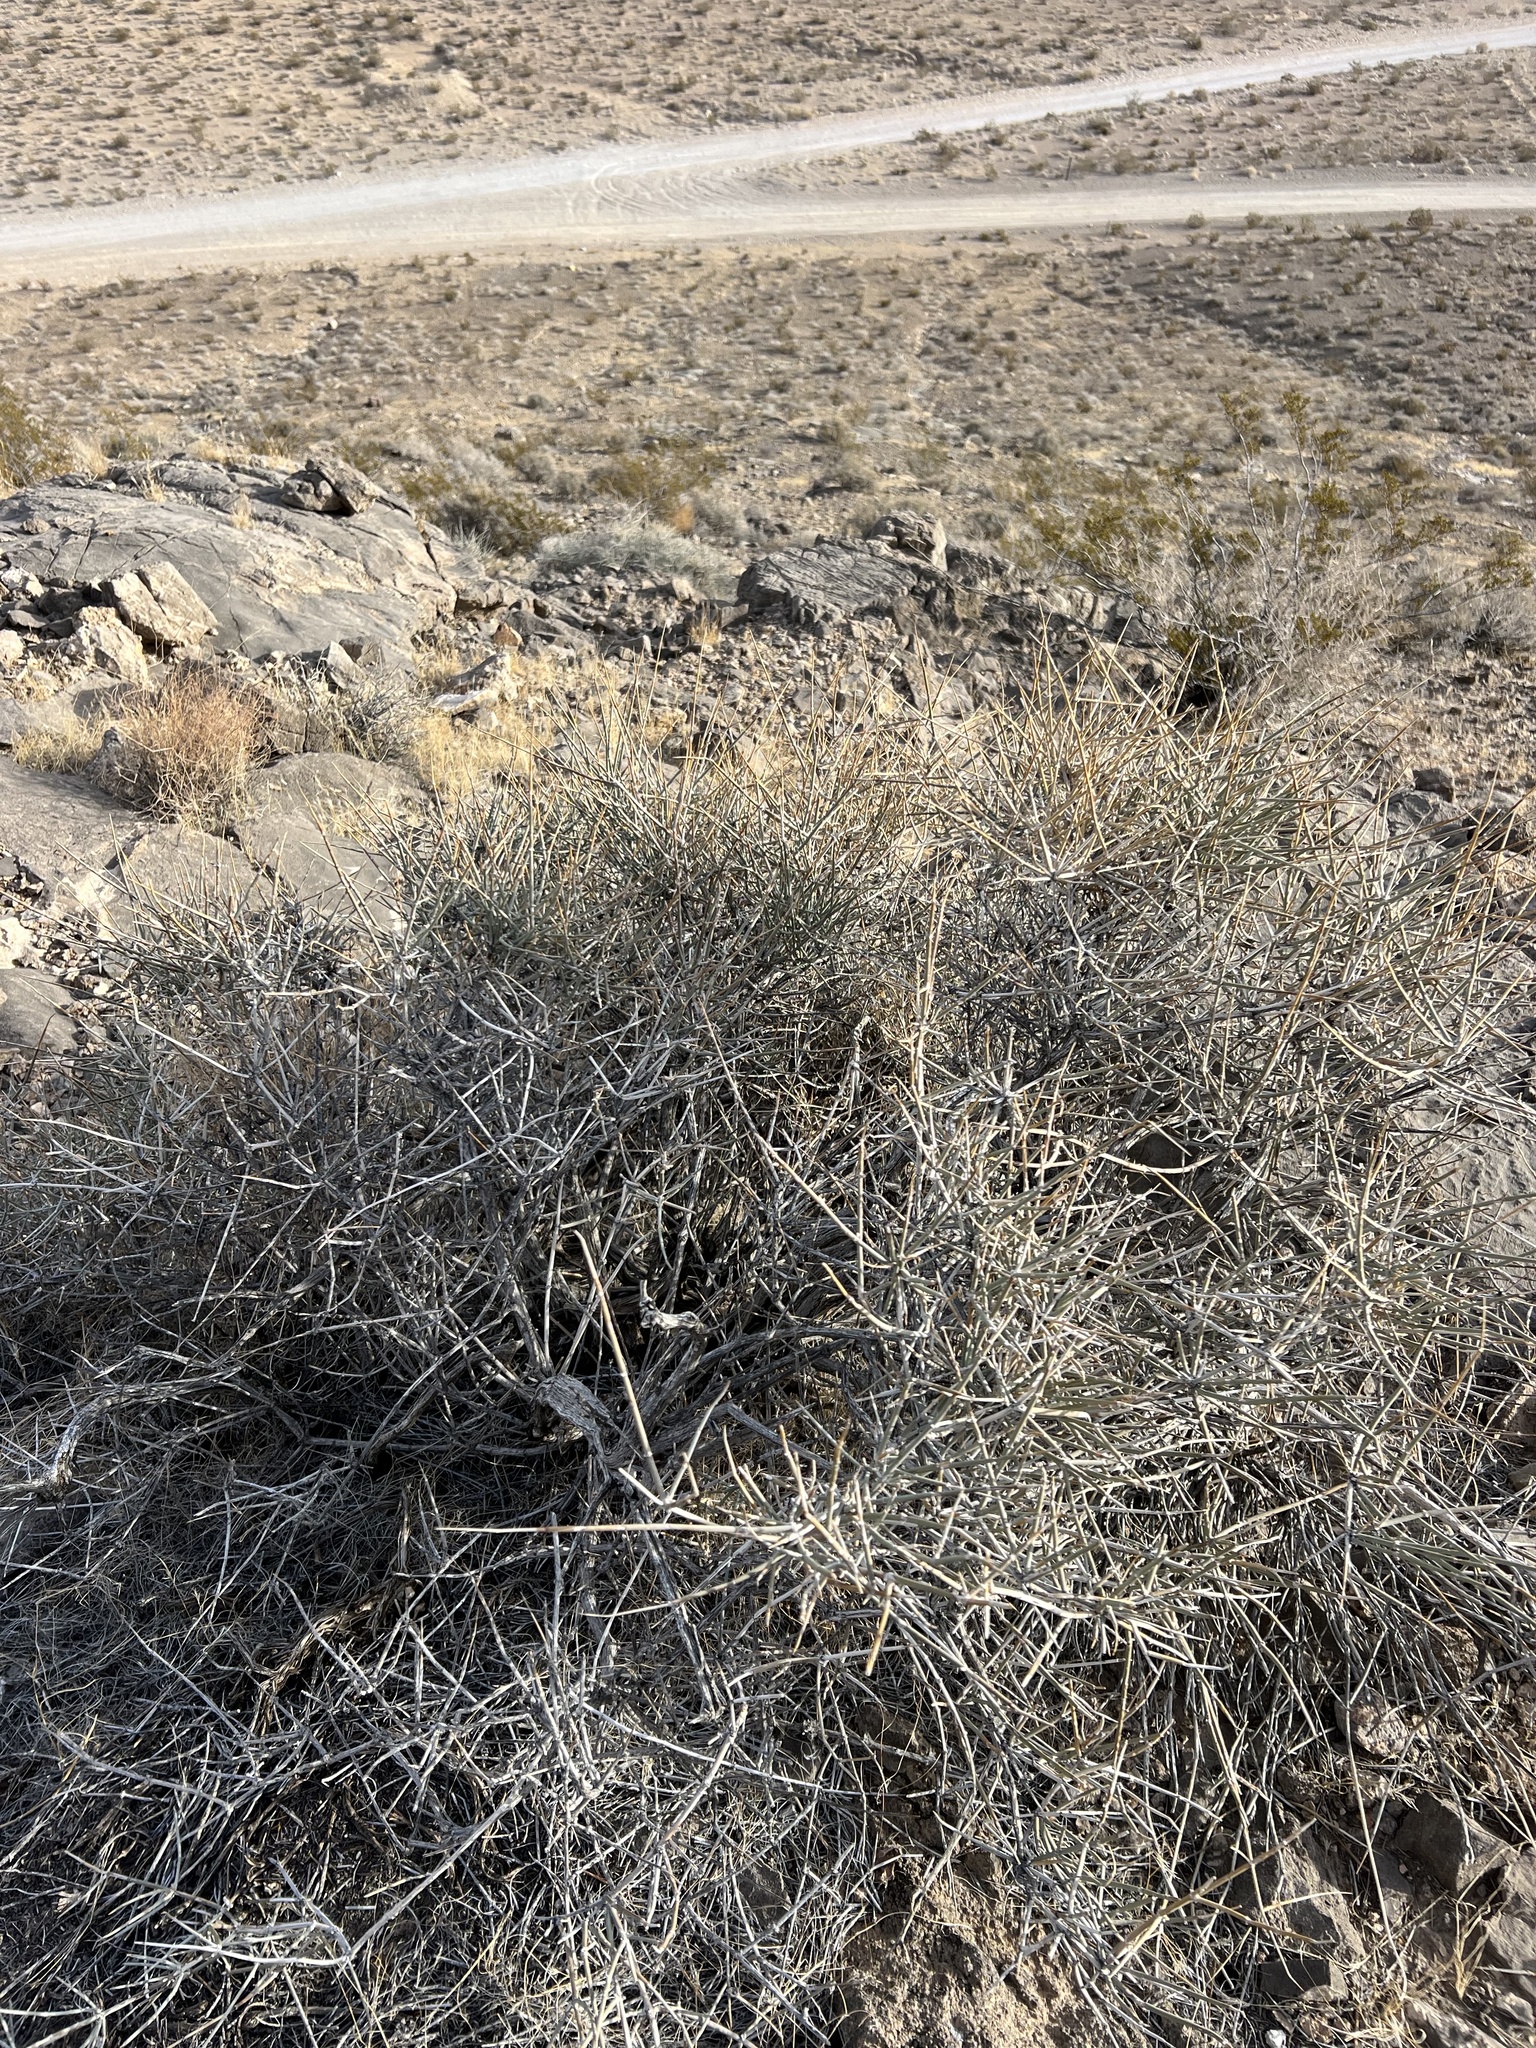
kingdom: Plantae
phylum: Tracheophyta
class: Gnetopsida
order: Ephedrales
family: Ephedraceae
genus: Ephedra
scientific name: Ephedra nevadensis
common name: Gray ephedra
